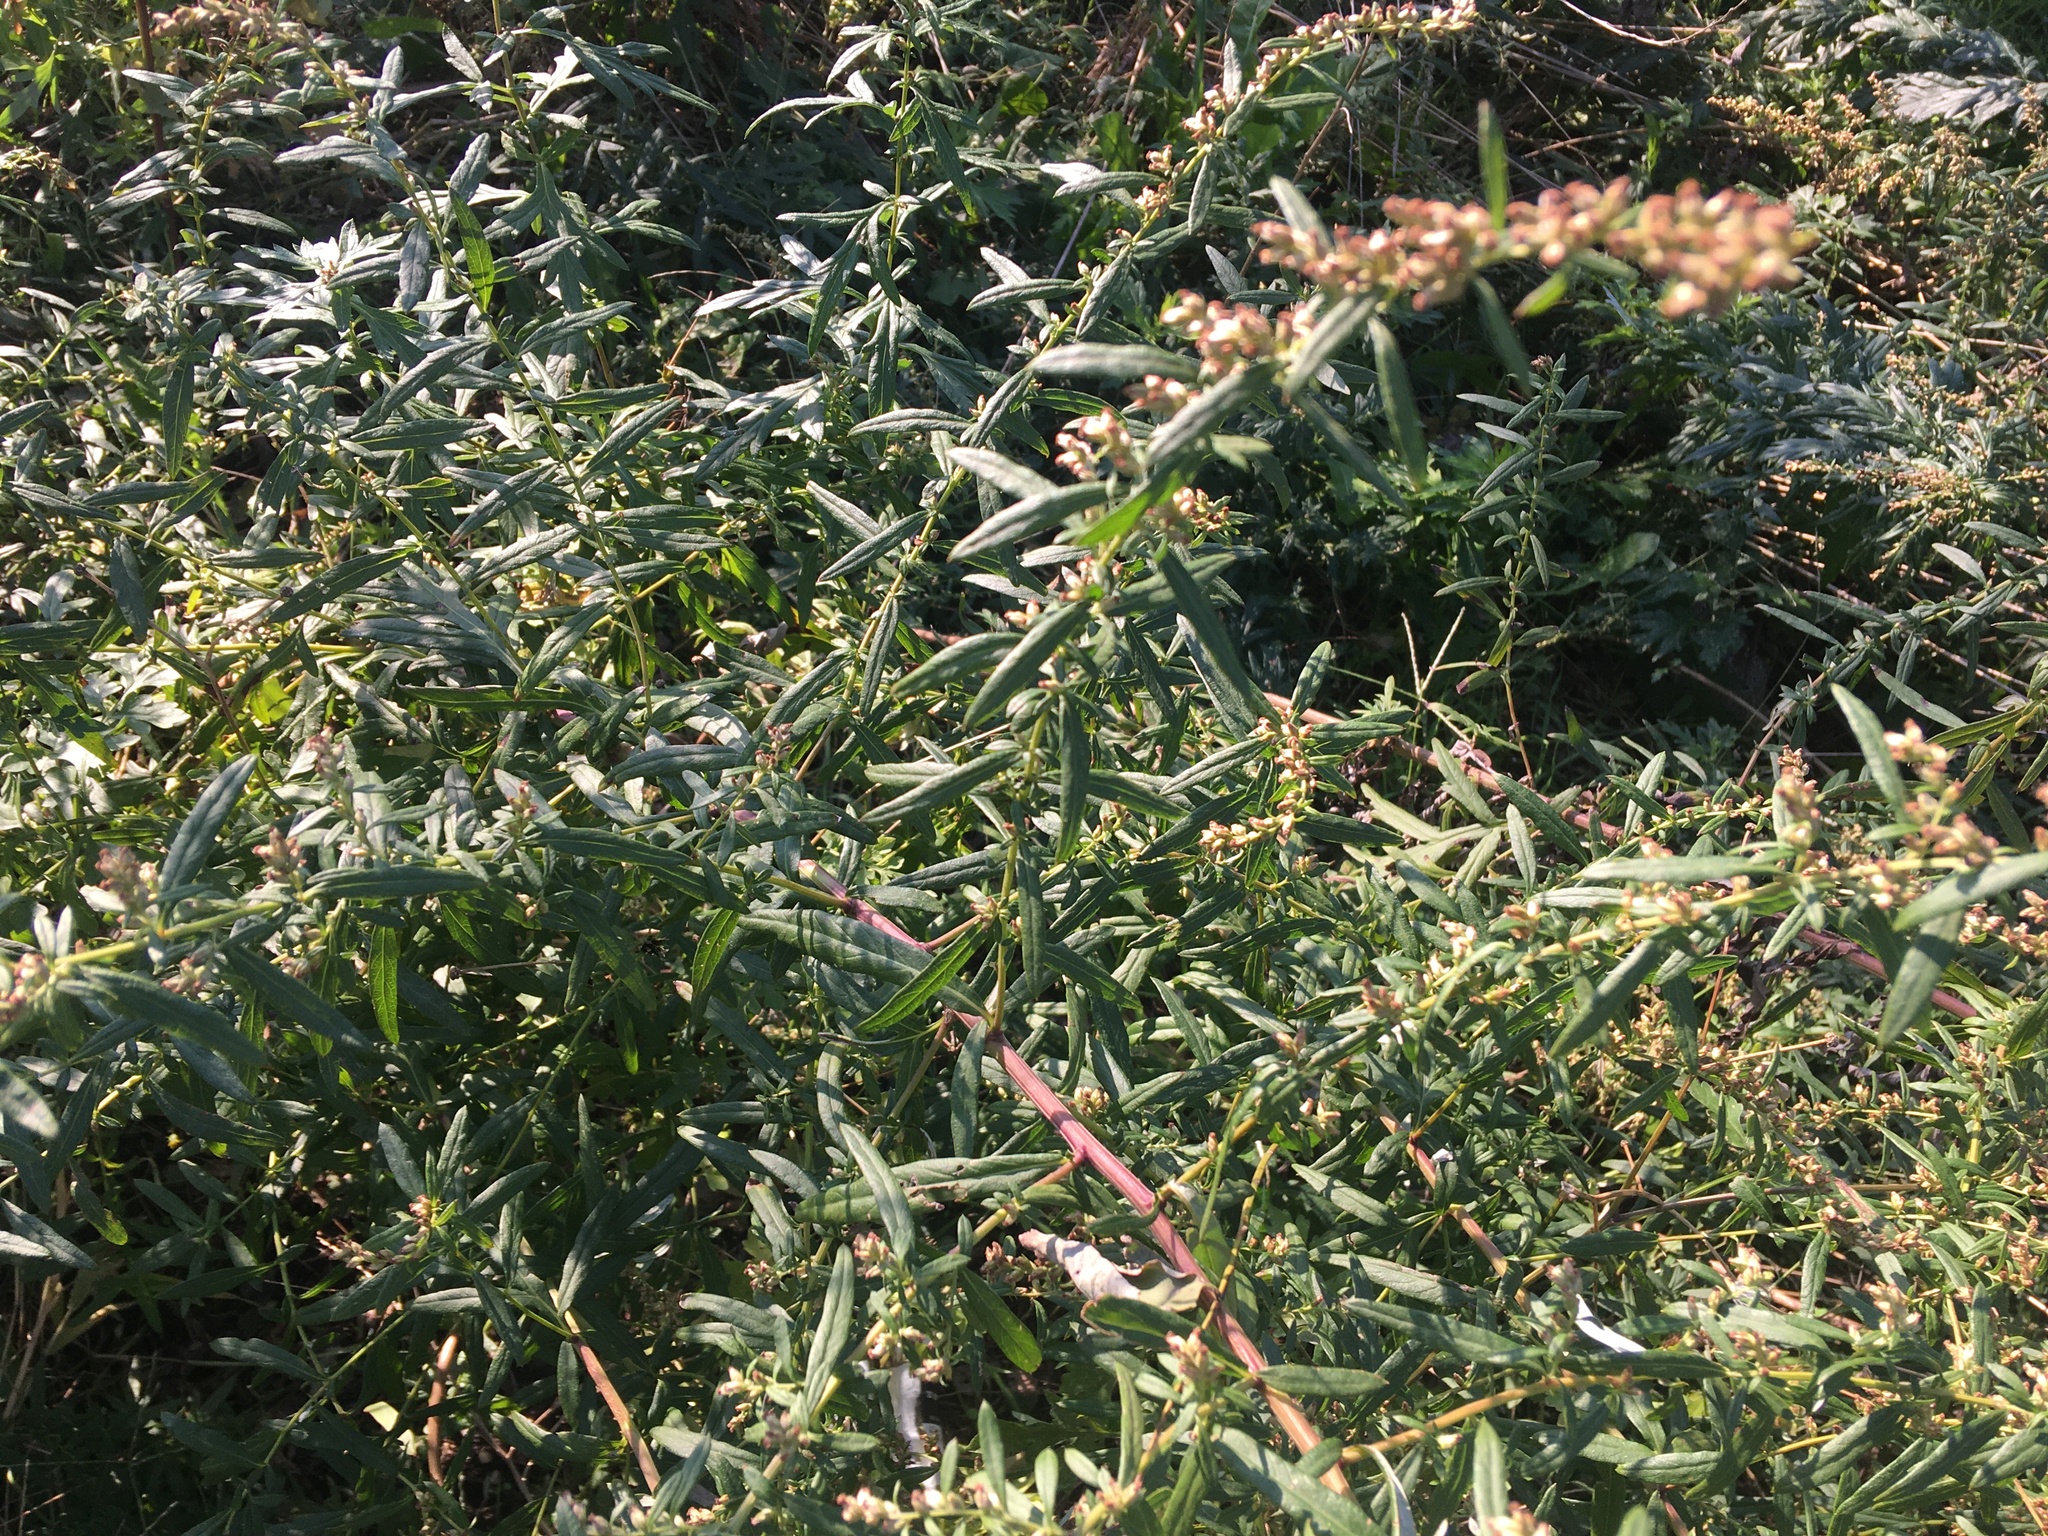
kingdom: Plantae
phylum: Tracheophyta
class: Magnoliopsida
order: Asterales
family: Asteraceae
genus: Artemisia
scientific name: Artemisia vulgaris
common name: Mugwort
